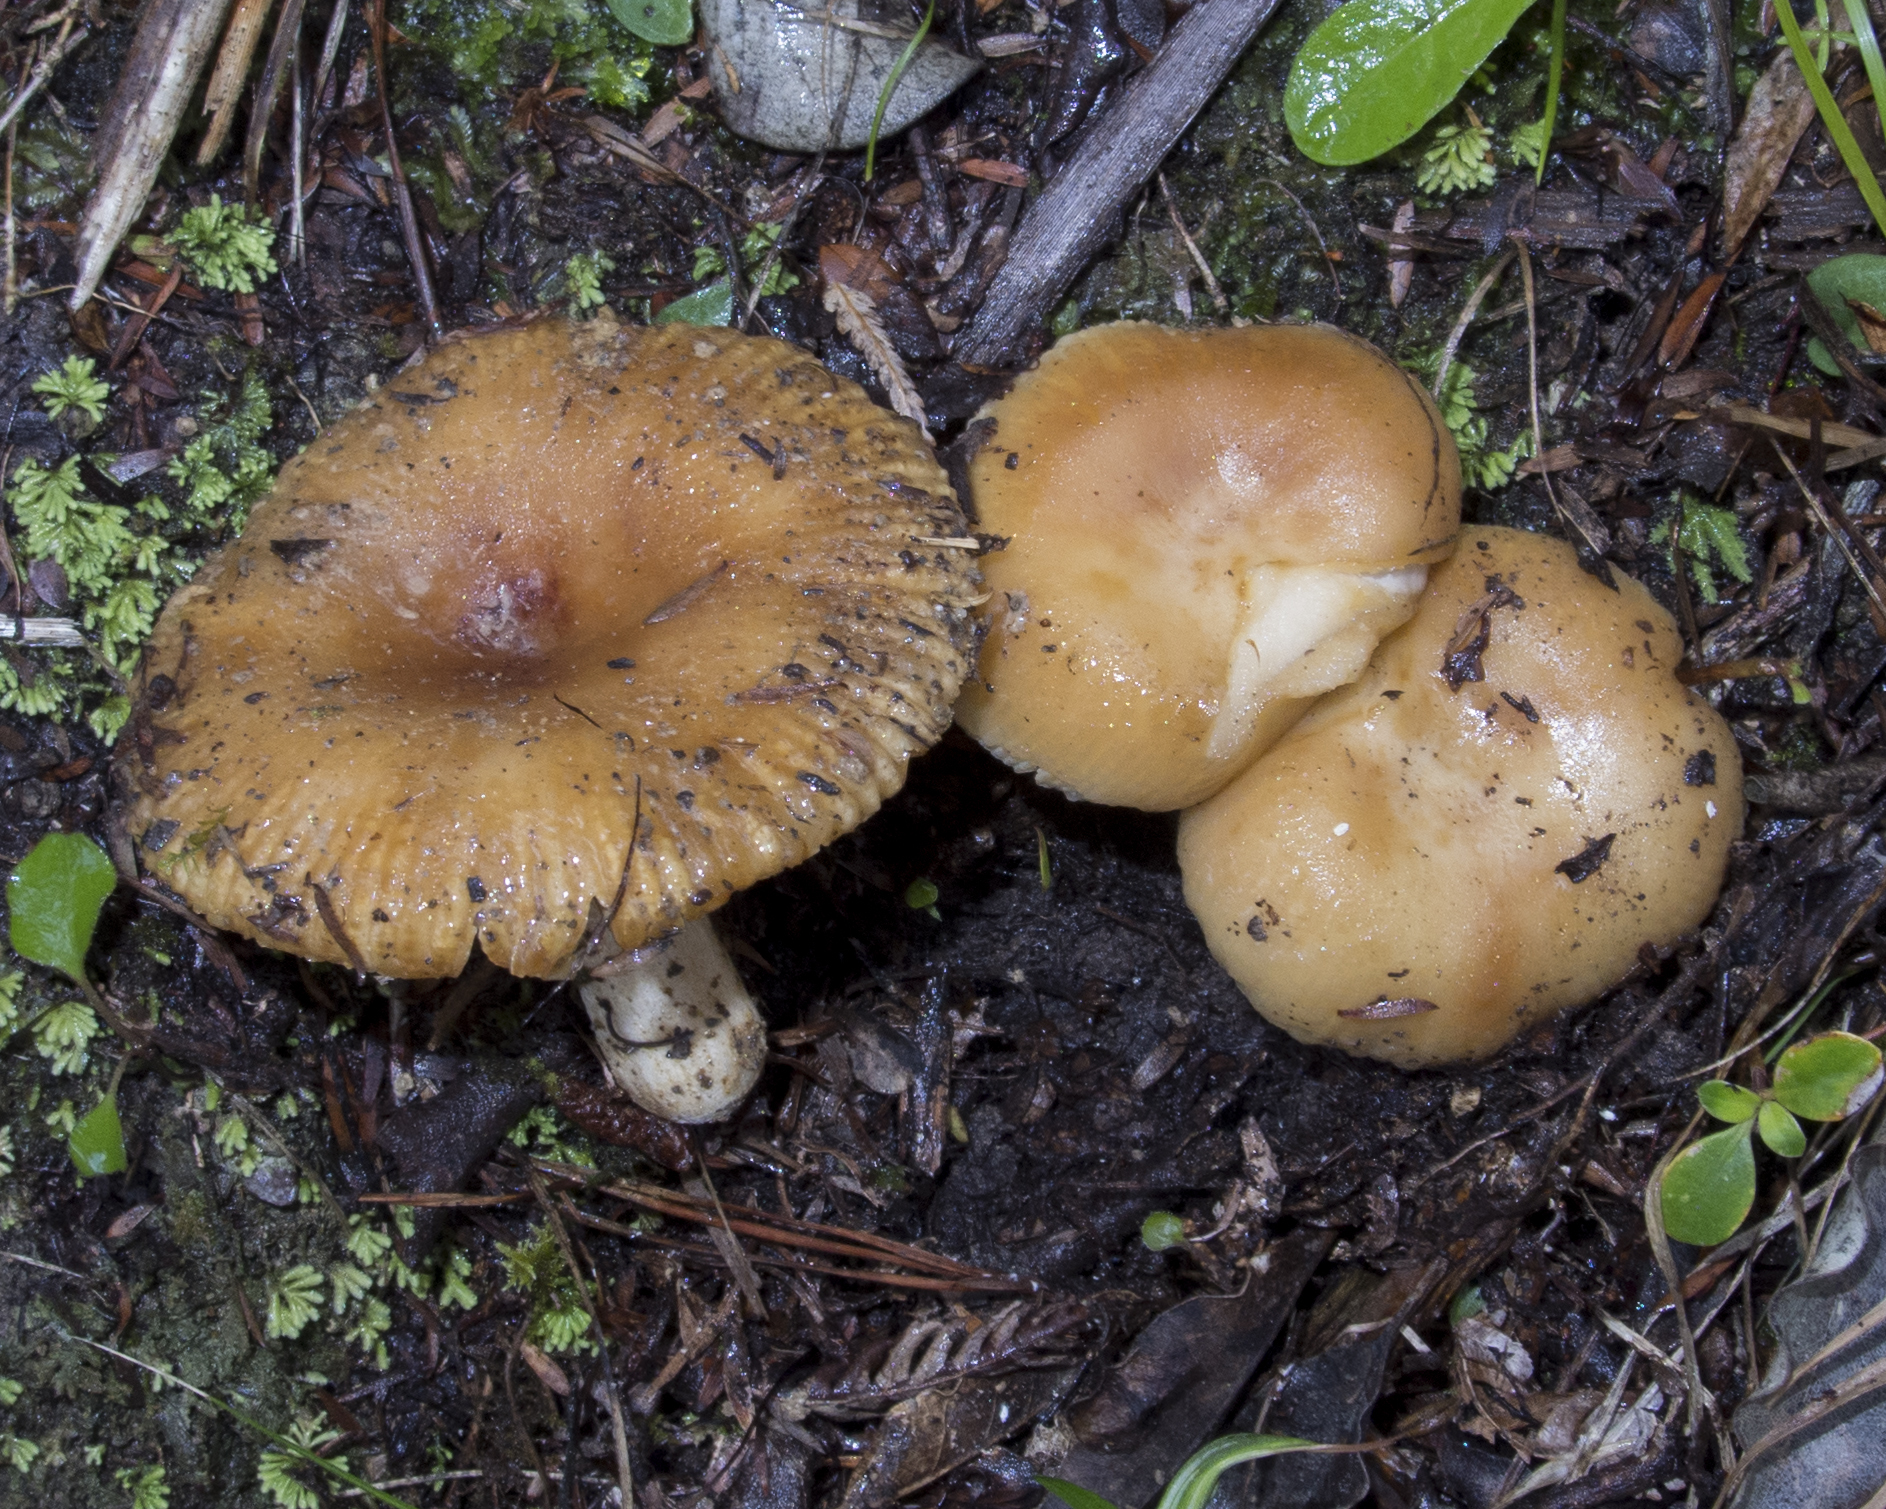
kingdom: Fungi
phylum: Basidiomycota
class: Agaricomycetes
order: Russulales
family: Russulaceae
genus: Russula
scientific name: Russula novae-zelandiae
